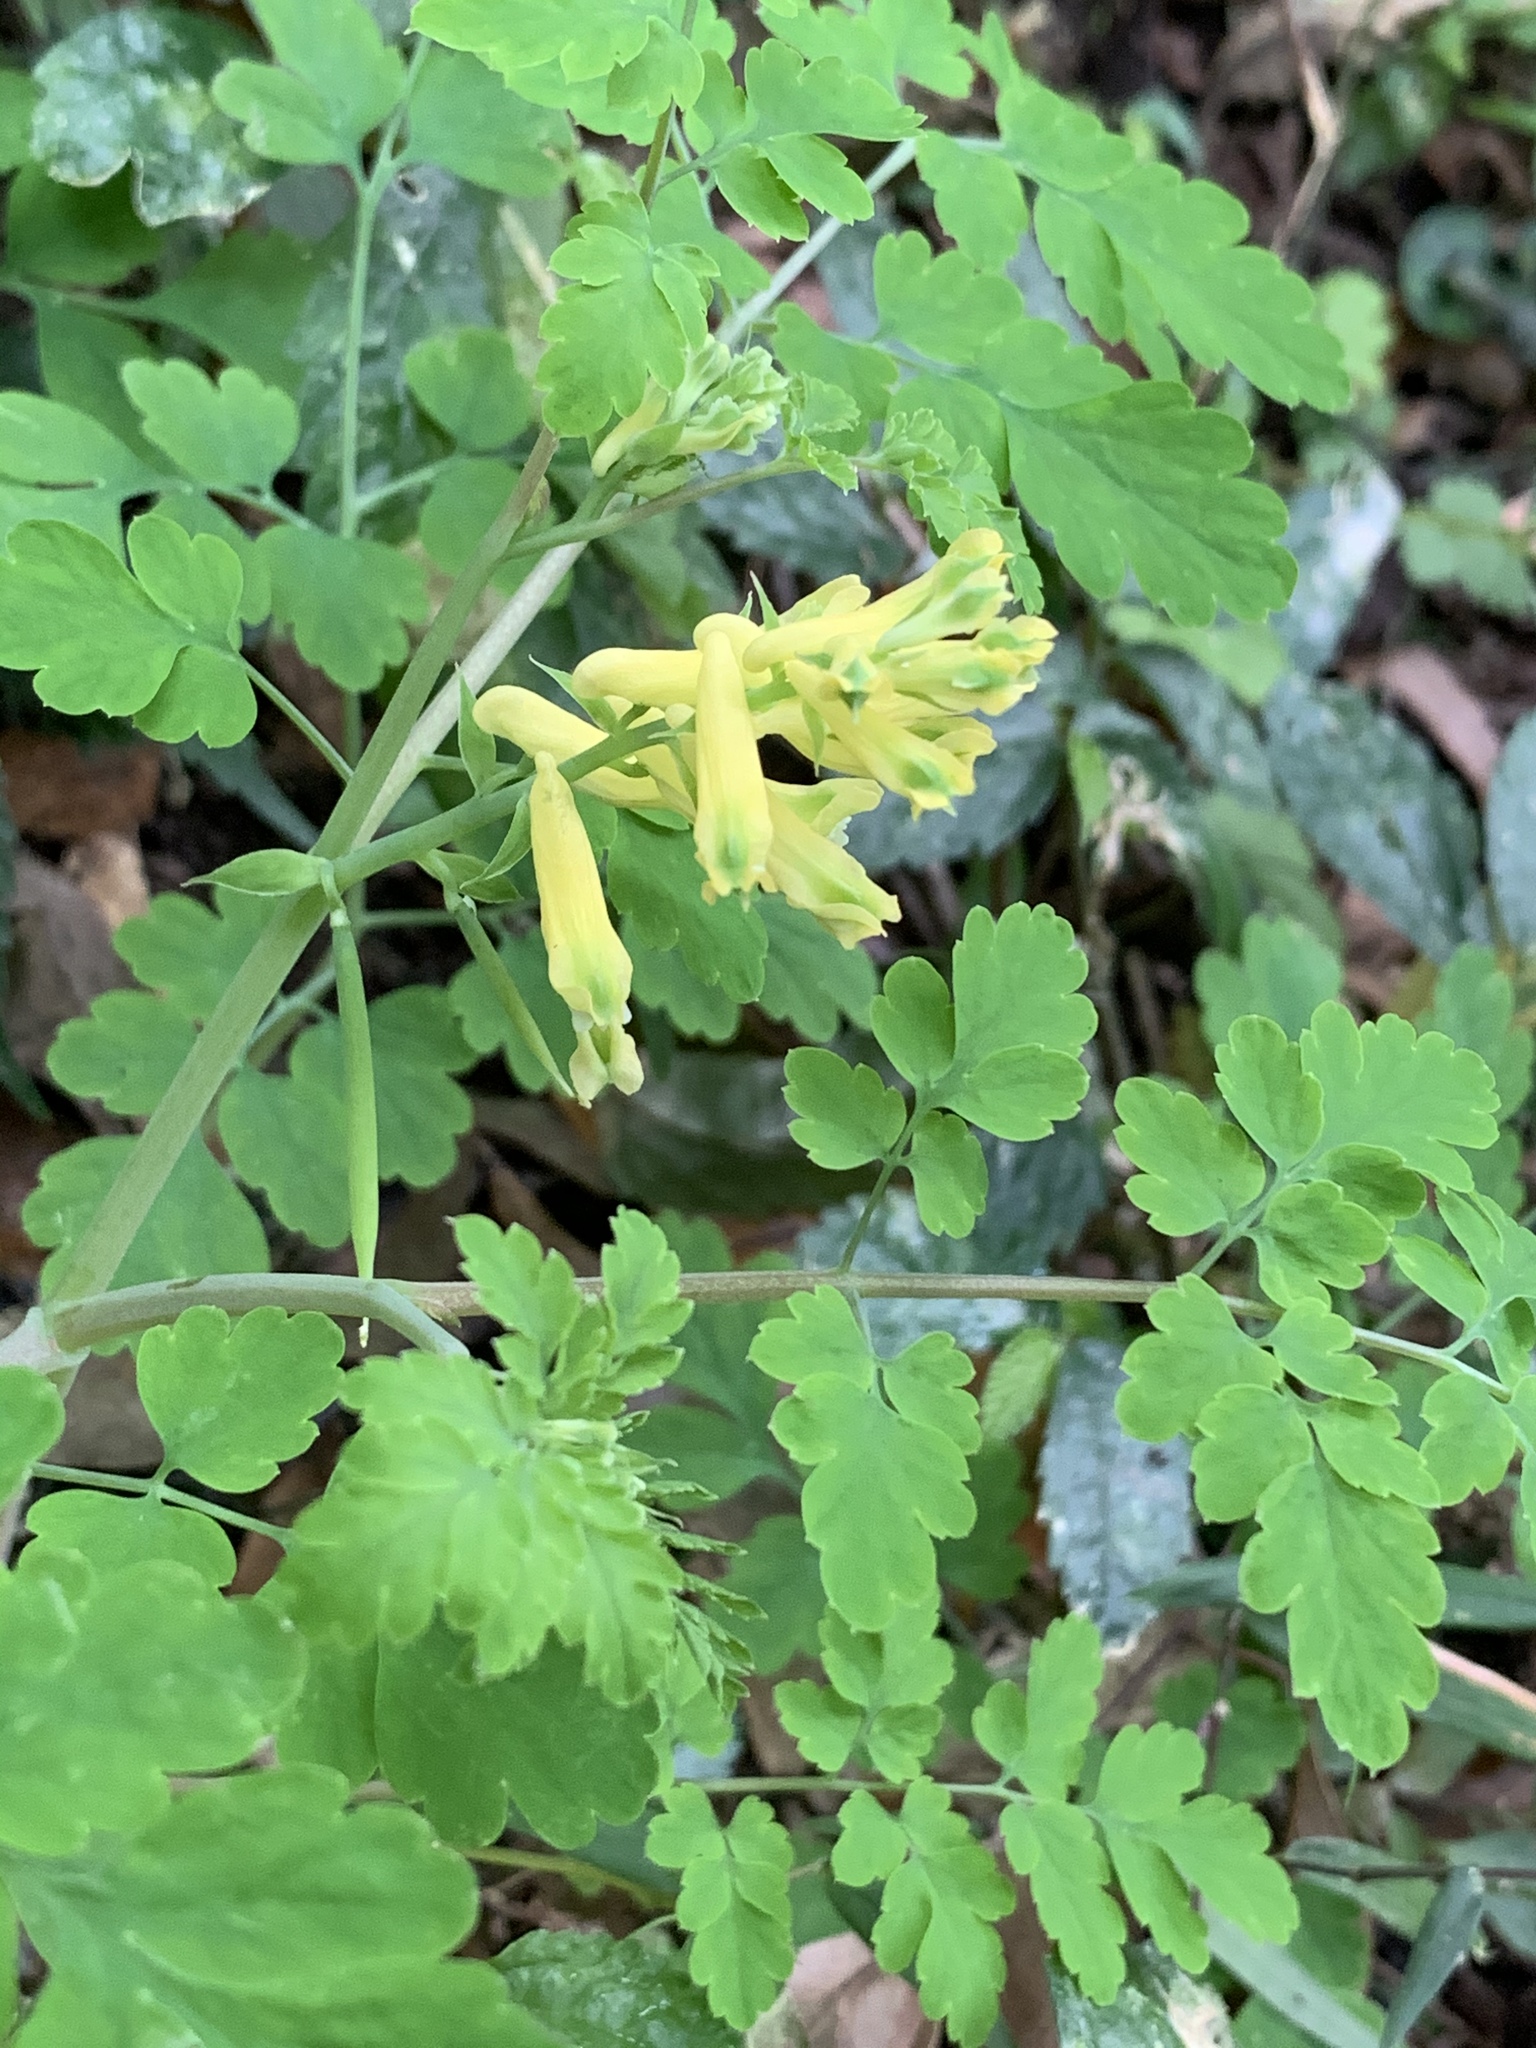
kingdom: Plantae
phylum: Tracheophyta
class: Magnoliopsida
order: Ranunculales
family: Papaveraceae
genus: Corydalis
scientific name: Corydalis balansae
